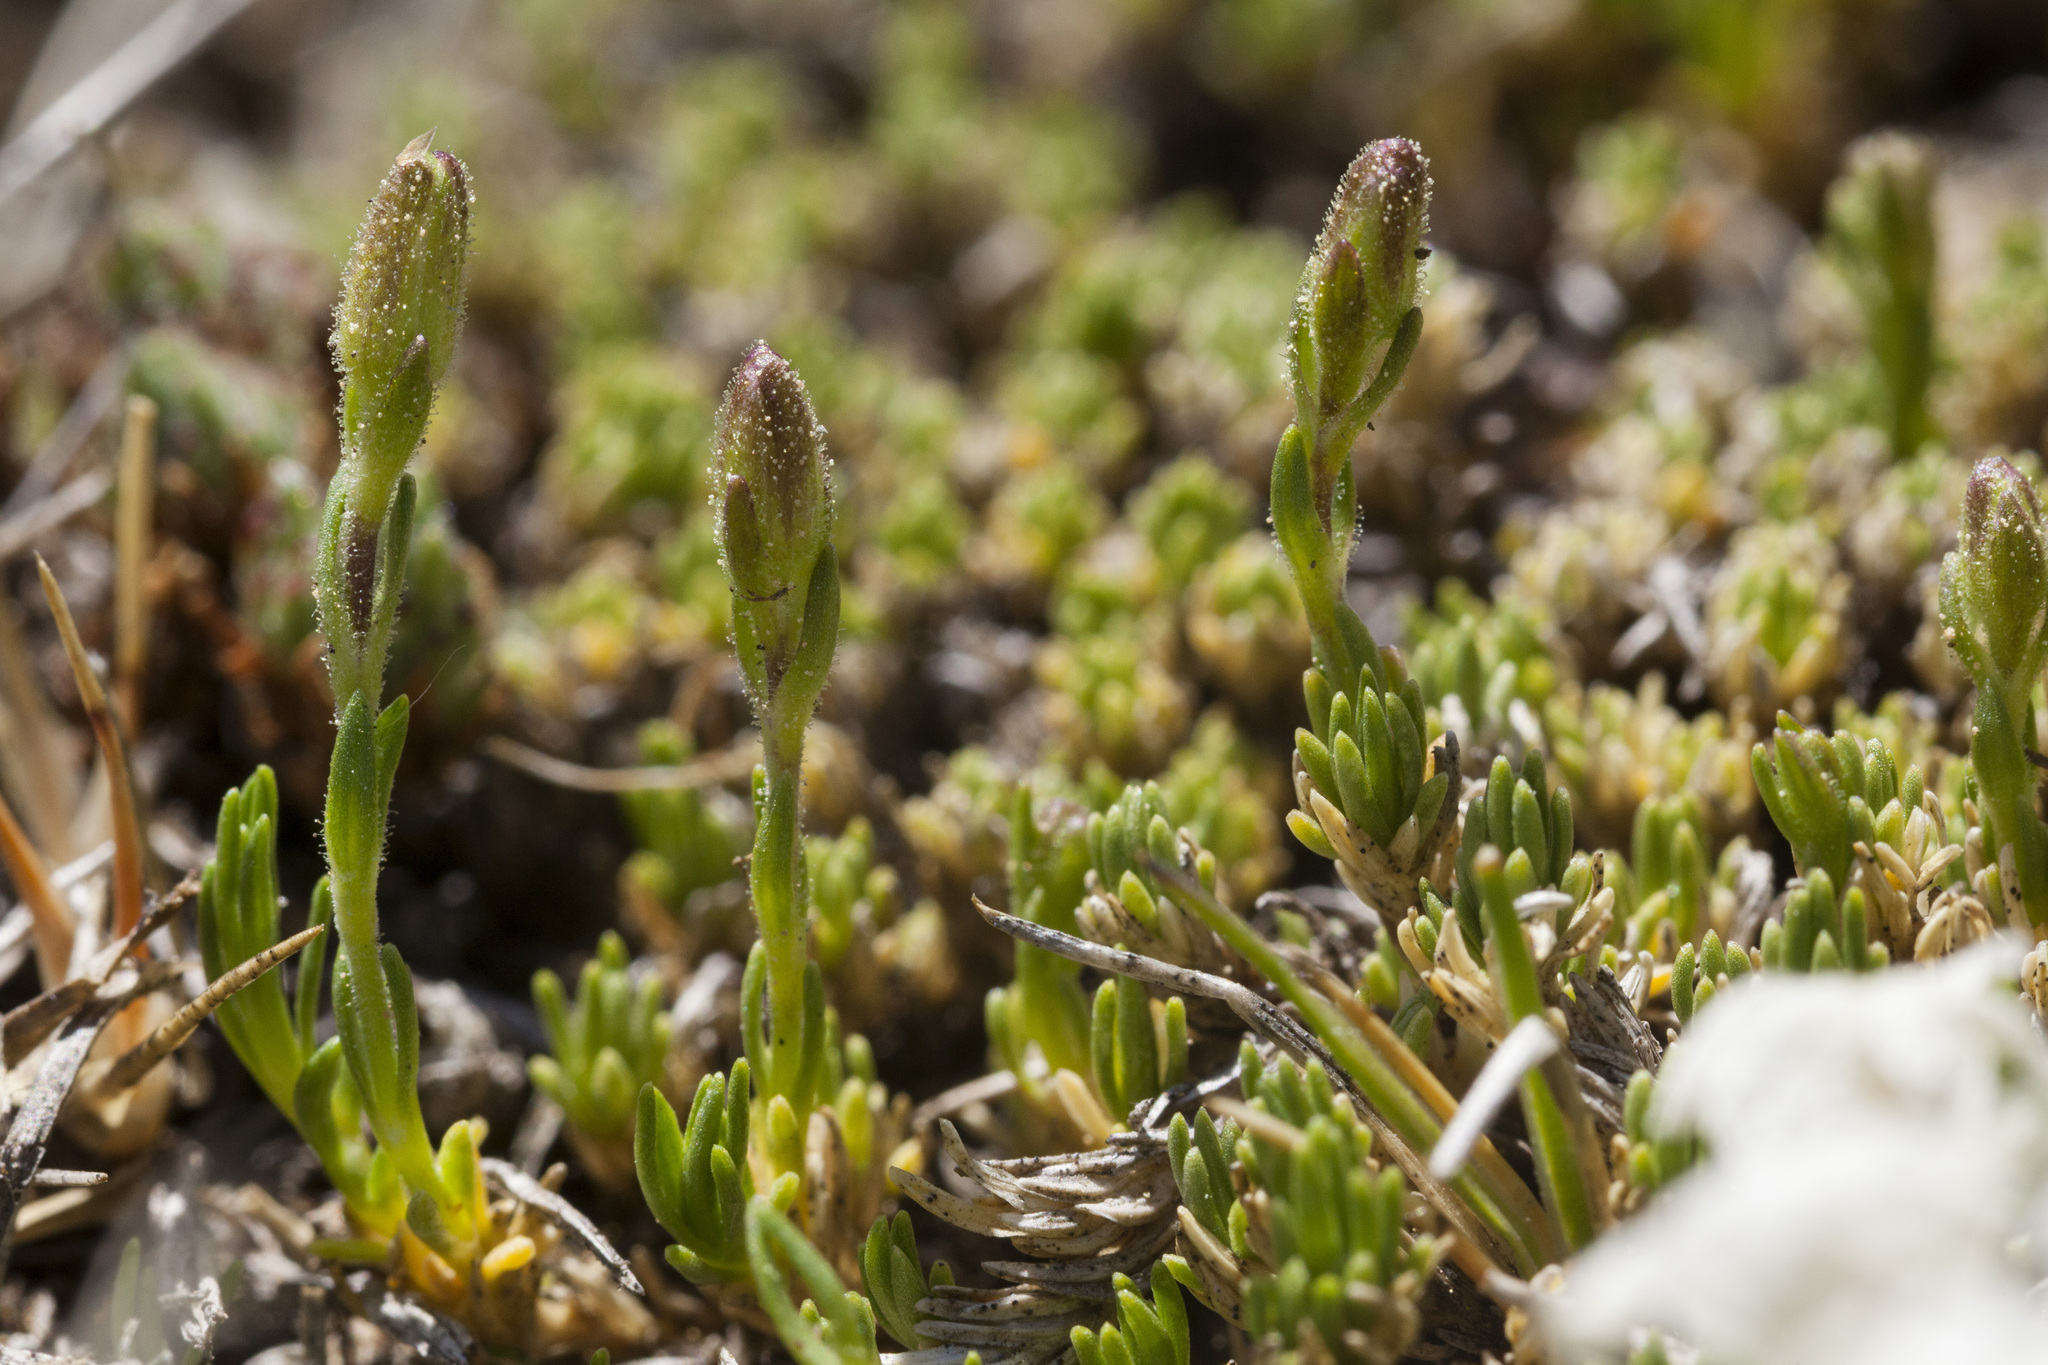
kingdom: Plantae
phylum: Tracheophyta
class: Magnoliopsida
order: Caryophyllales
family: Caryophyllaceae
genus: Cherleria
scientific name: Cherleria obtusiloba
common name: Alpine stitchwort
